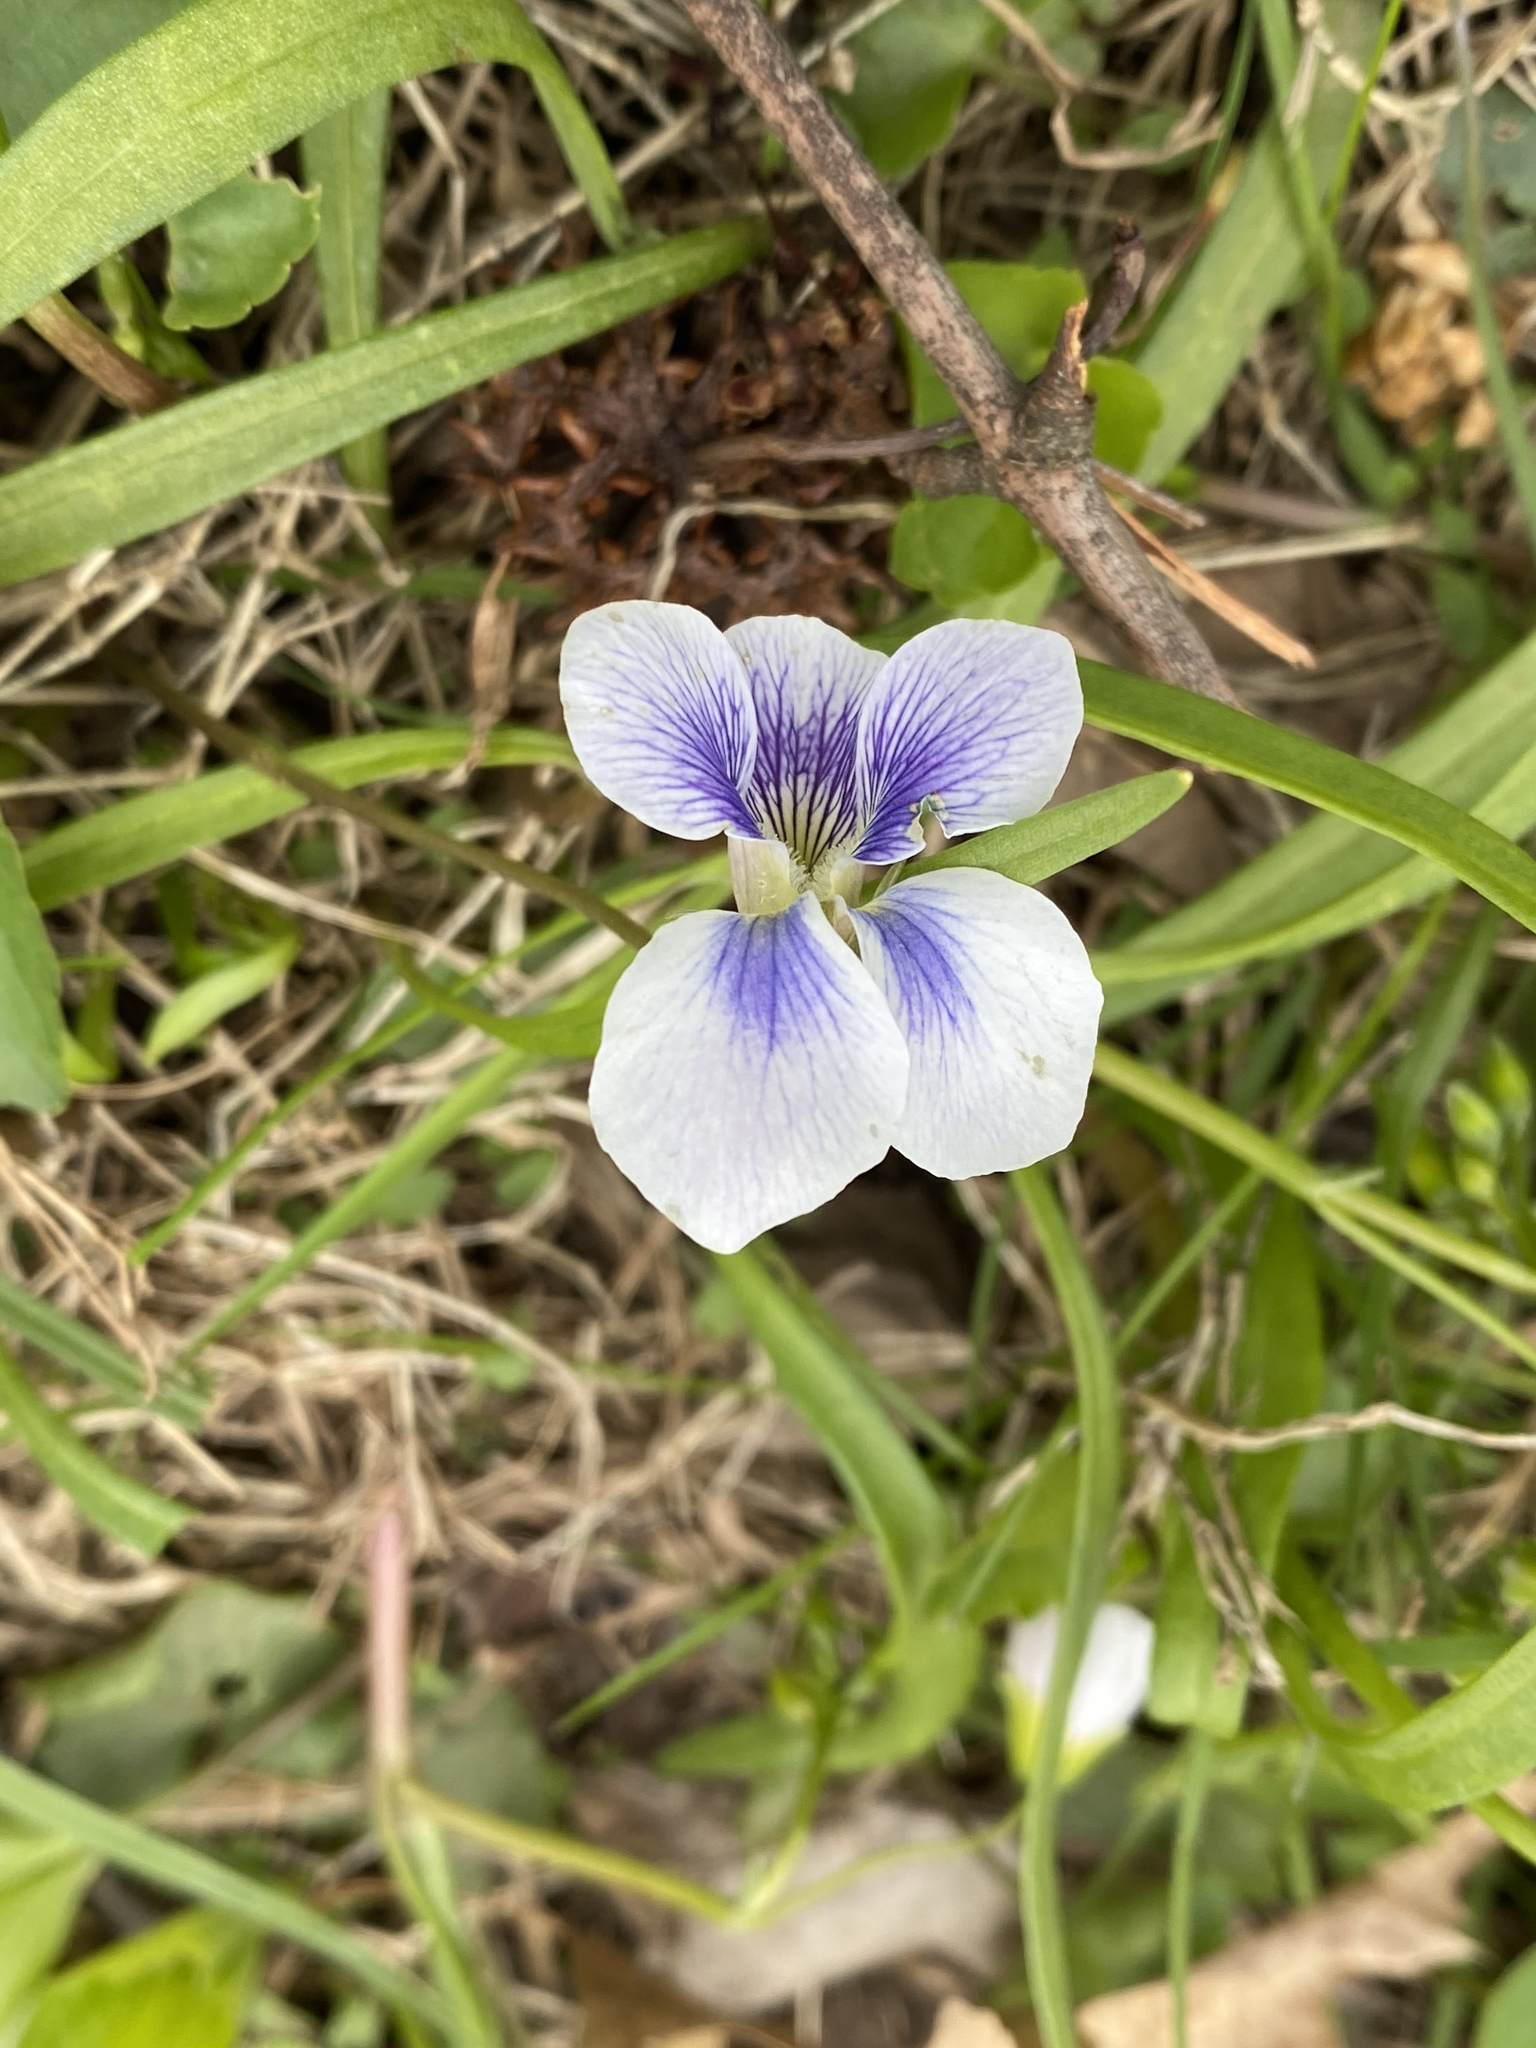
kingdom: Plantae
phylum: Tracheophyta
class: Magnoliopsida
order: Malpighiales
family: Violaceae
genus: Viola
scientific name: Viola sororia
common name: Dooryard violet
